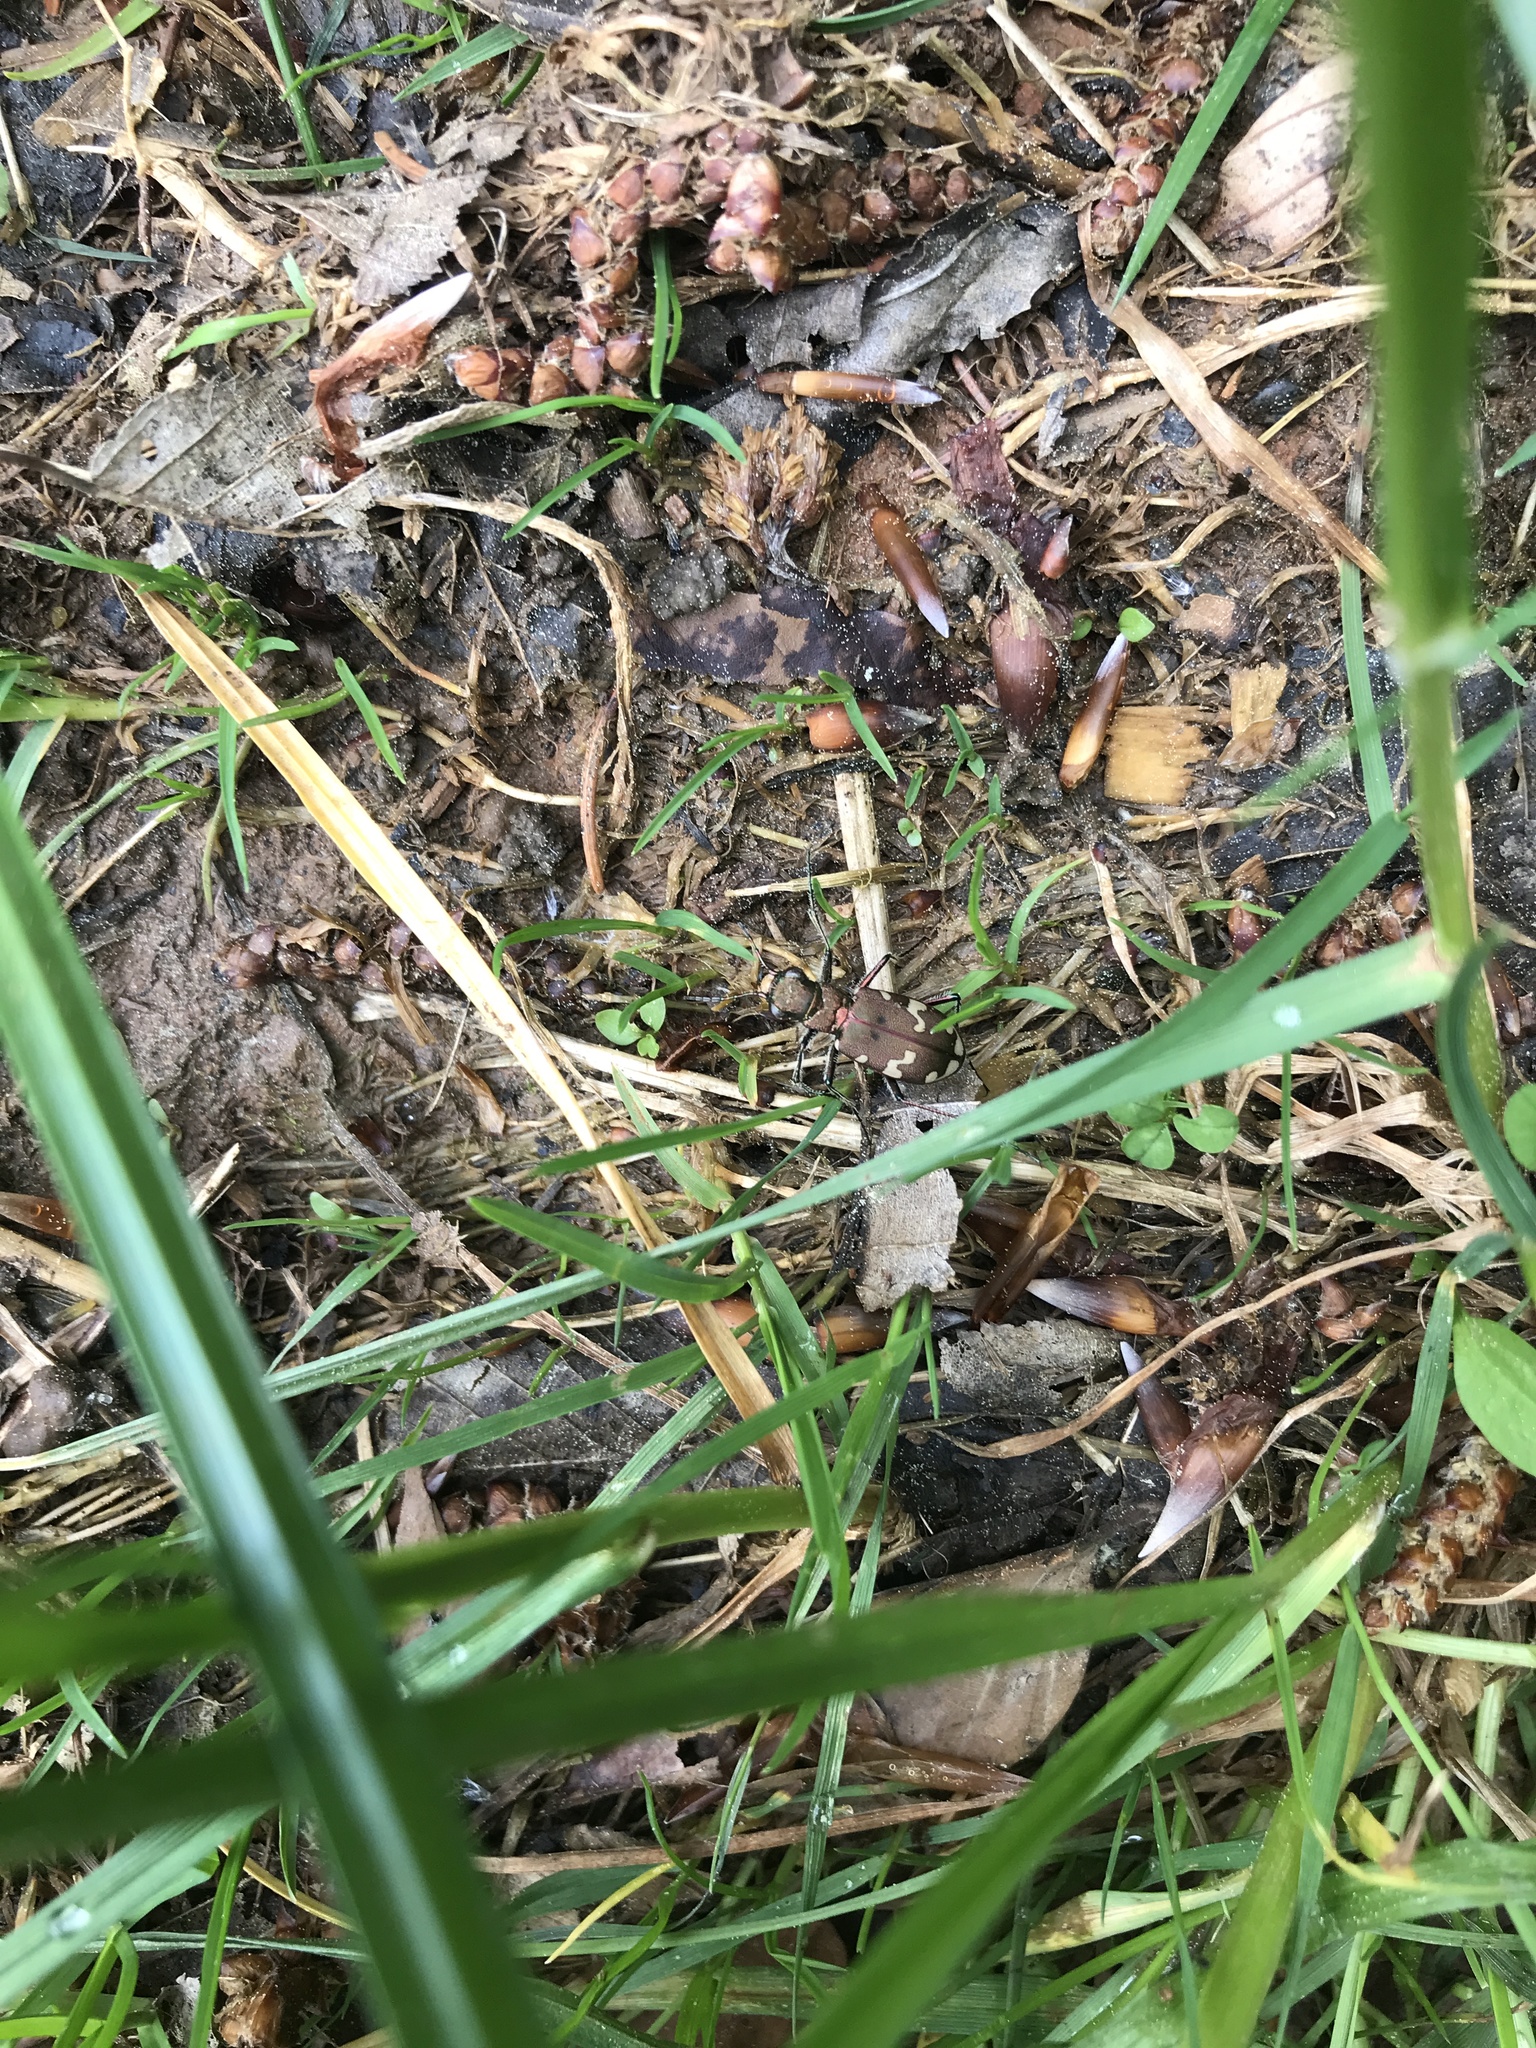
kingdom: Animalia
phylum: Arthropoda
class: Insecta
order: Coleoptera
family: Carabidae
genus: Cicindela
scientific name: Cicindela sylvicola
